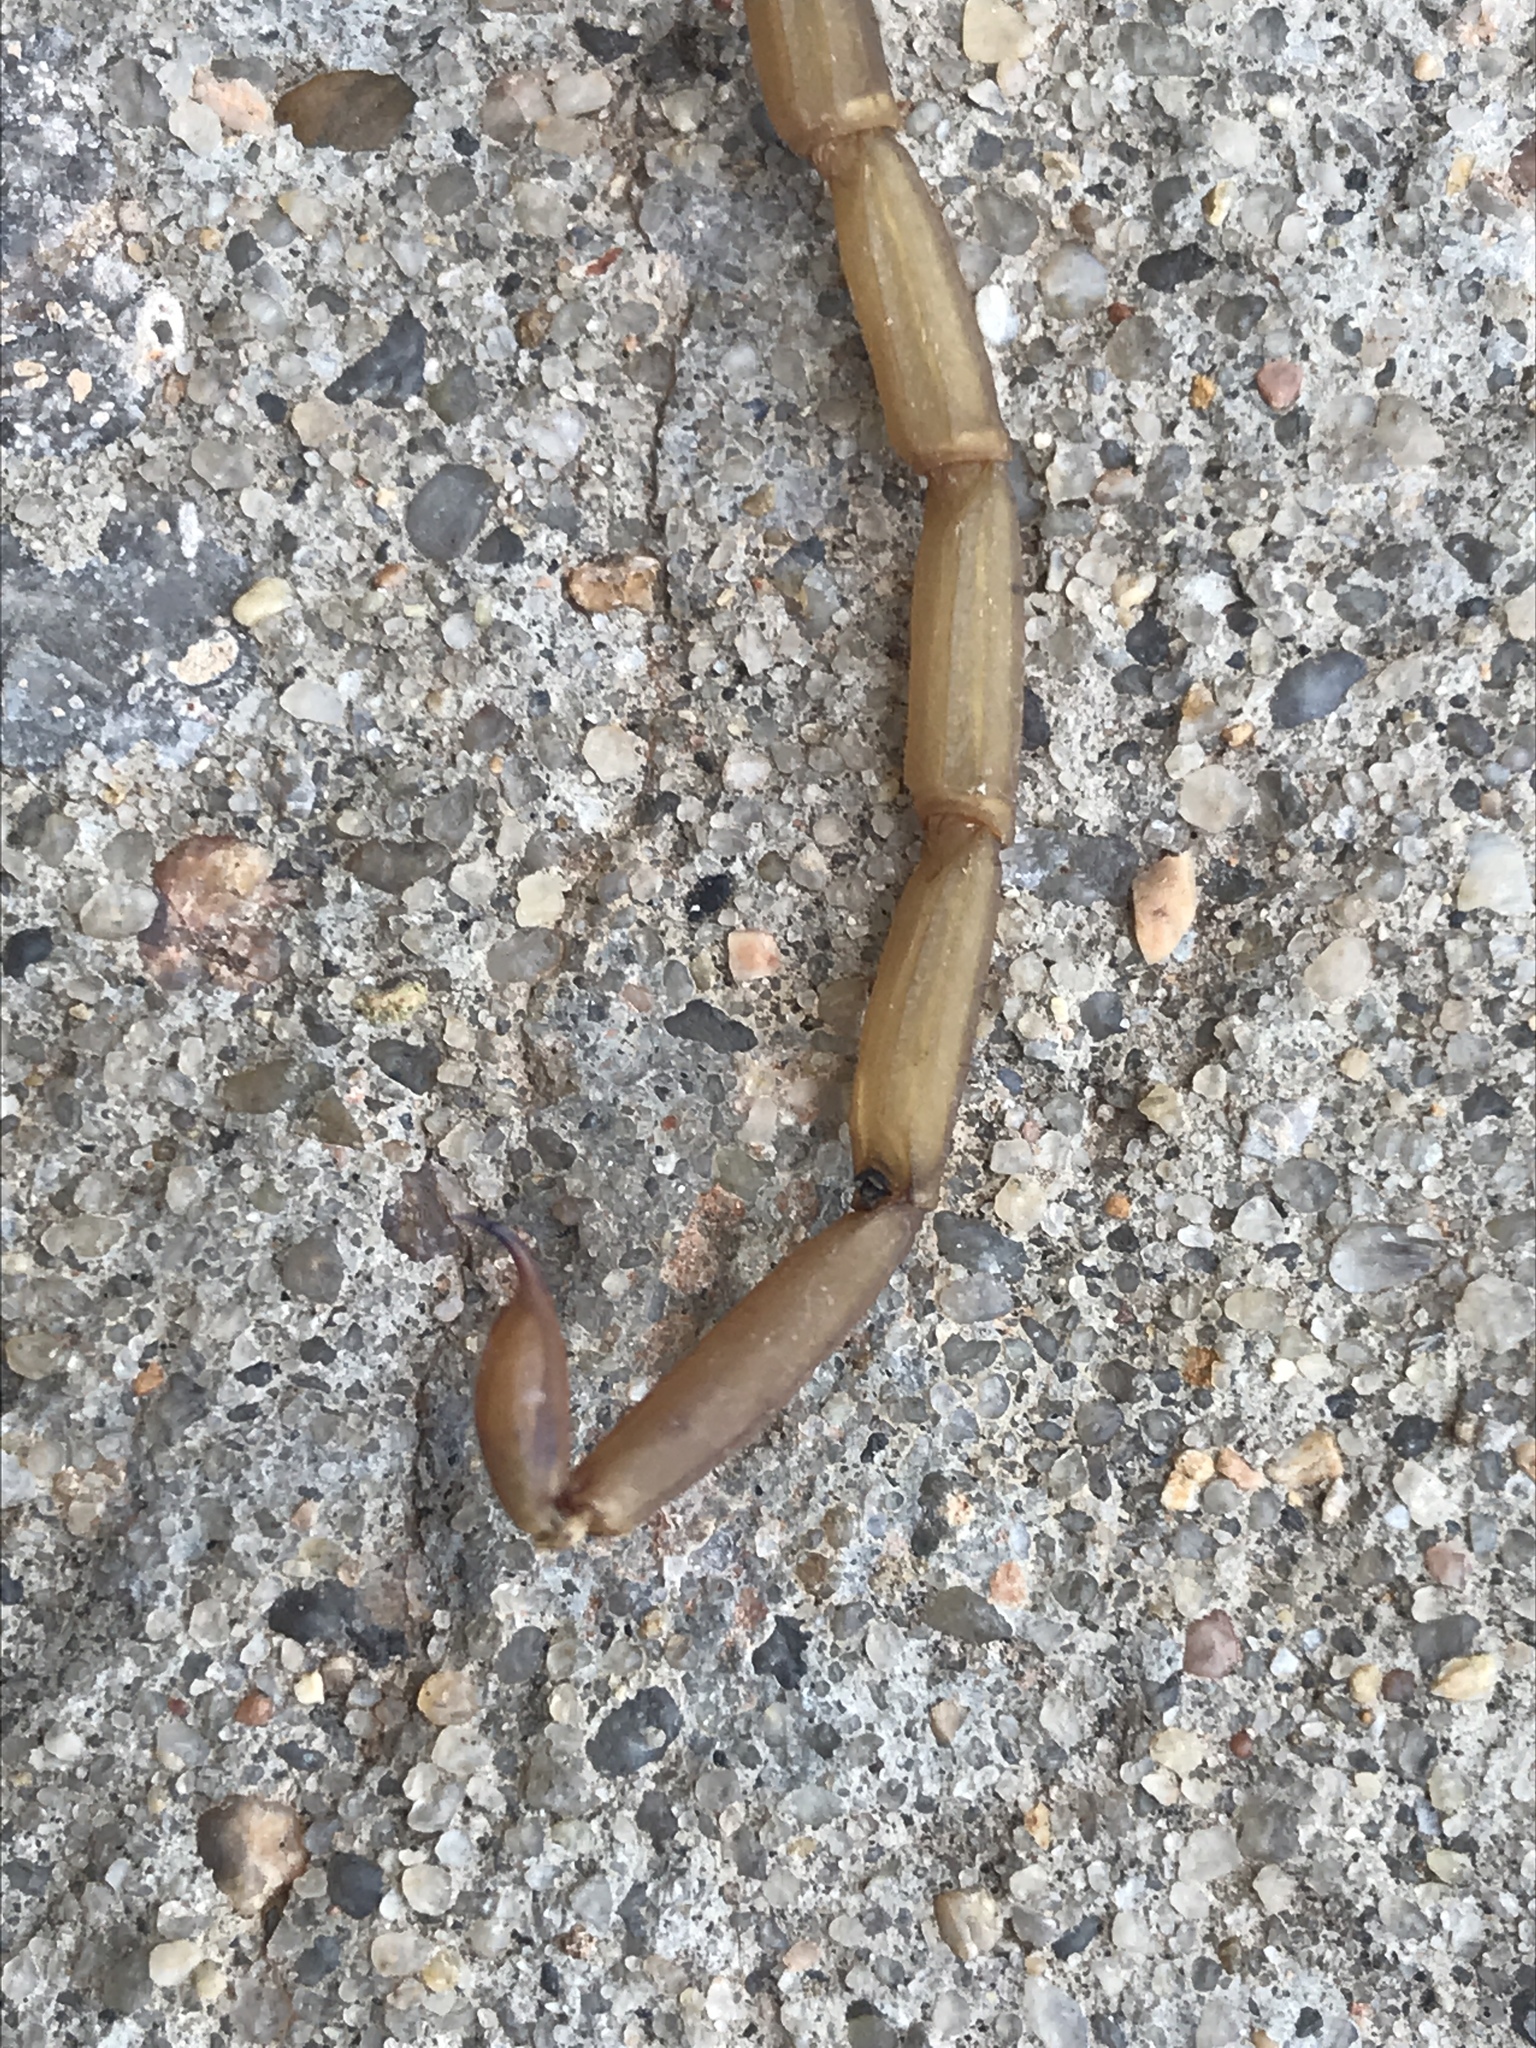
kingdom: Animalia
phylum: Arthropoda
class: Arachnida
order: Scorpiones
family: Buthidae
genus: Centruroides
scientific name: Centruroides vittatus
